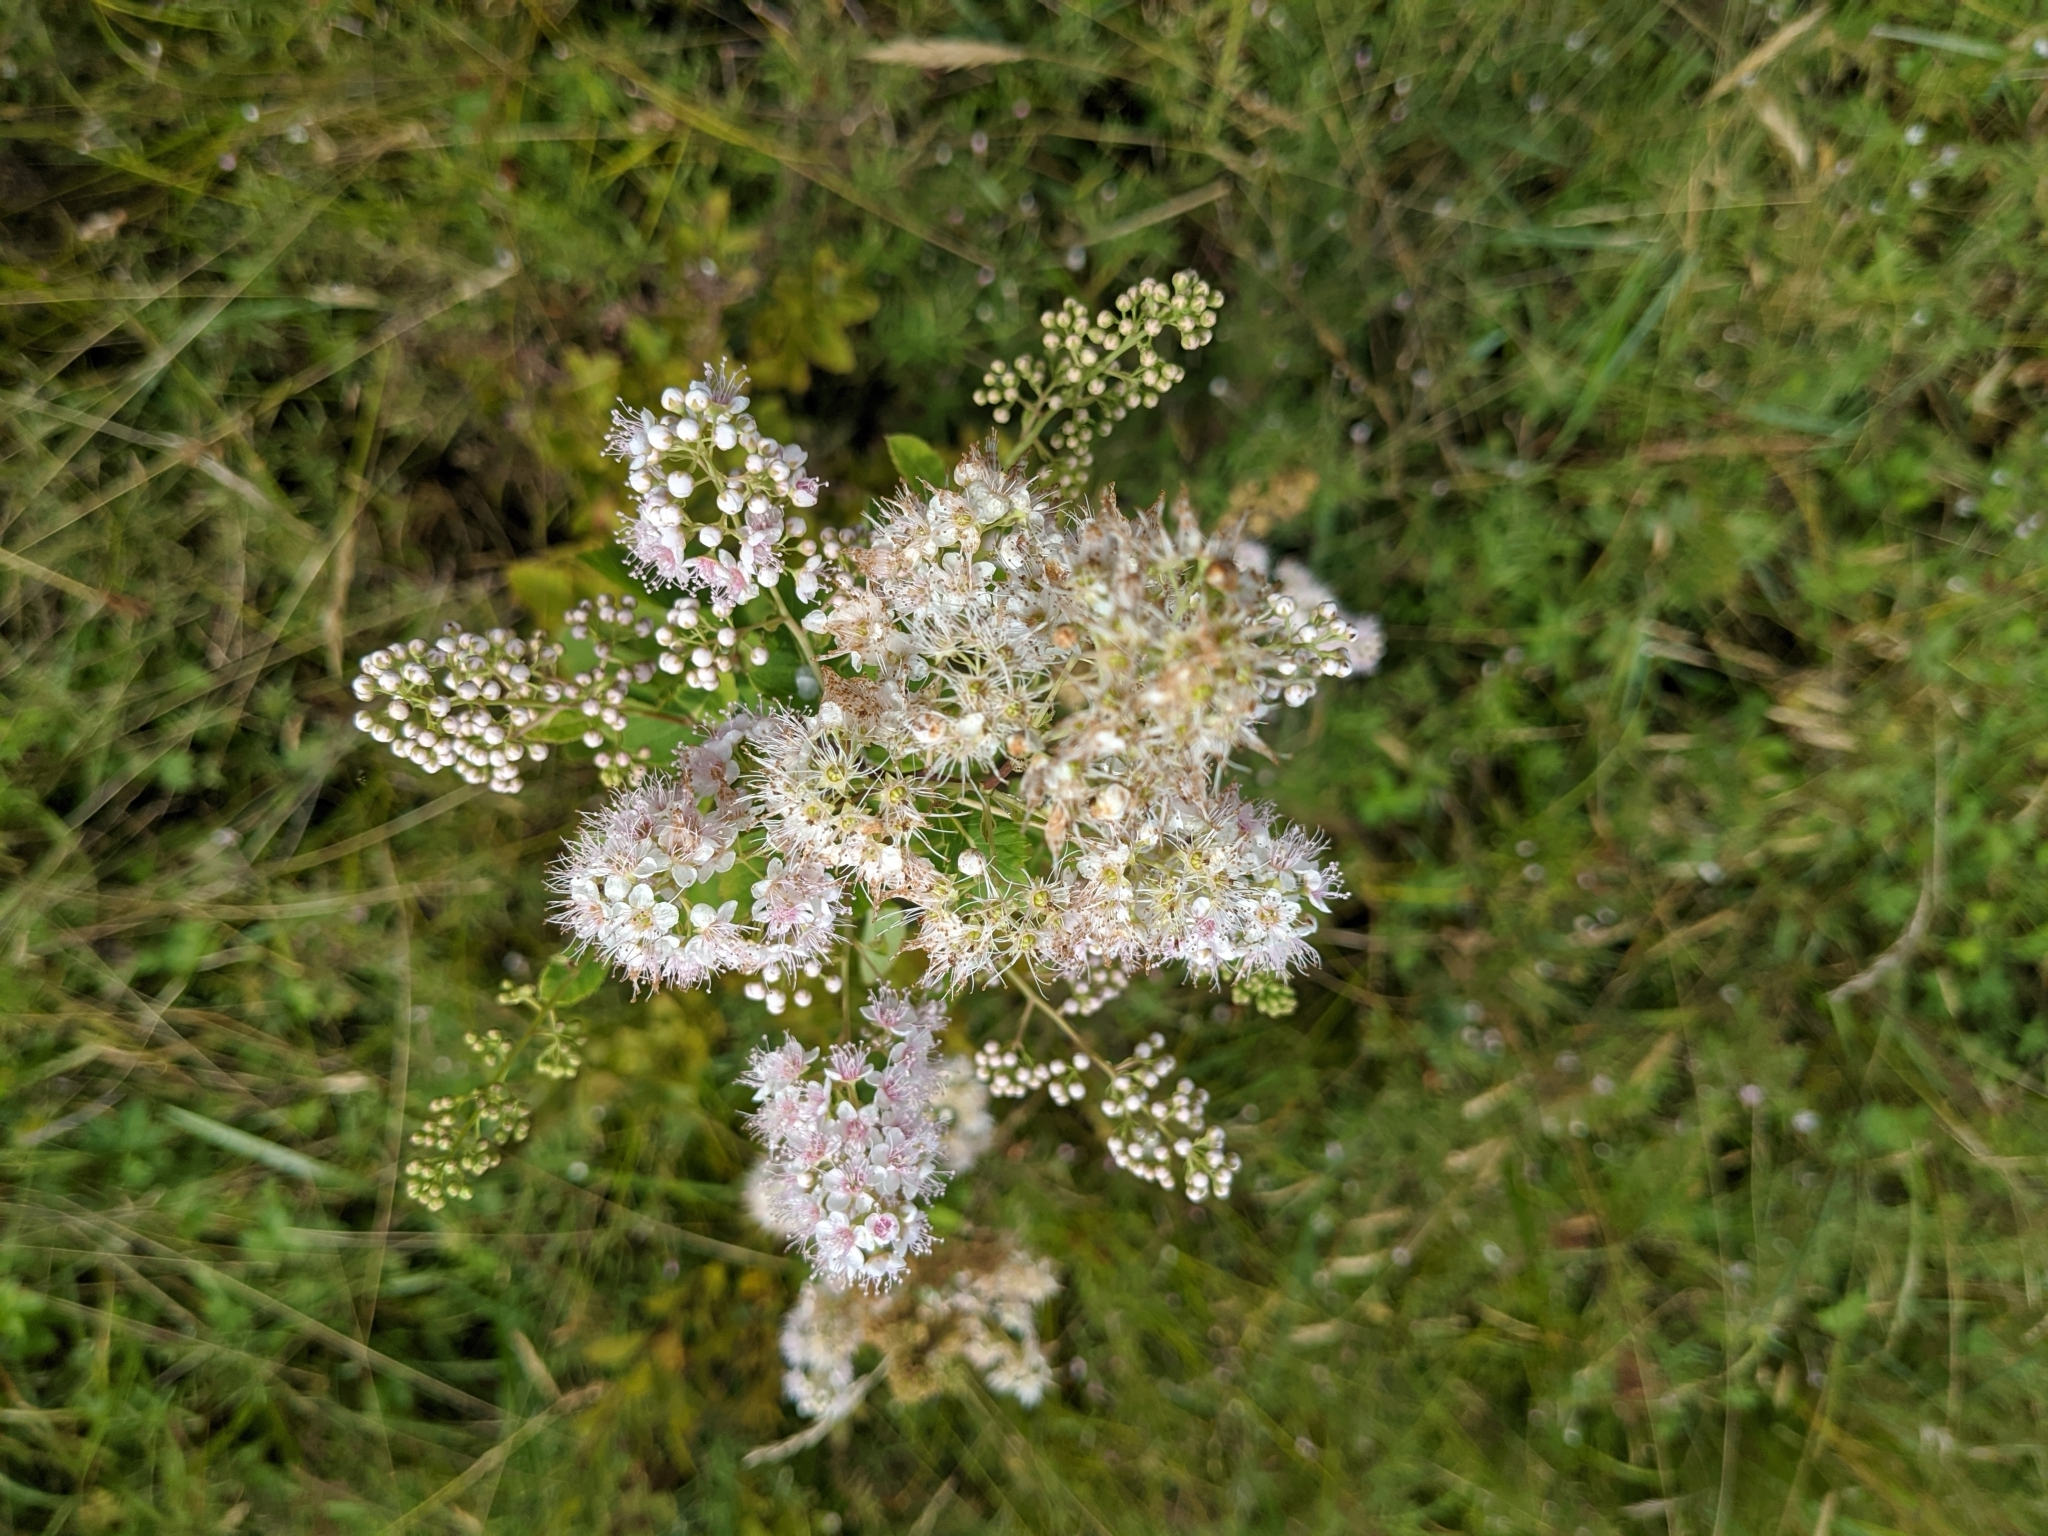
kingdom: Plantae
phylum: Tracheophyta
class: Magnoliopsida
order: Rosales
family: Rosaceae
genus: Spiraea
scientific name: Spiraea alba
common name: Pale bridewort
